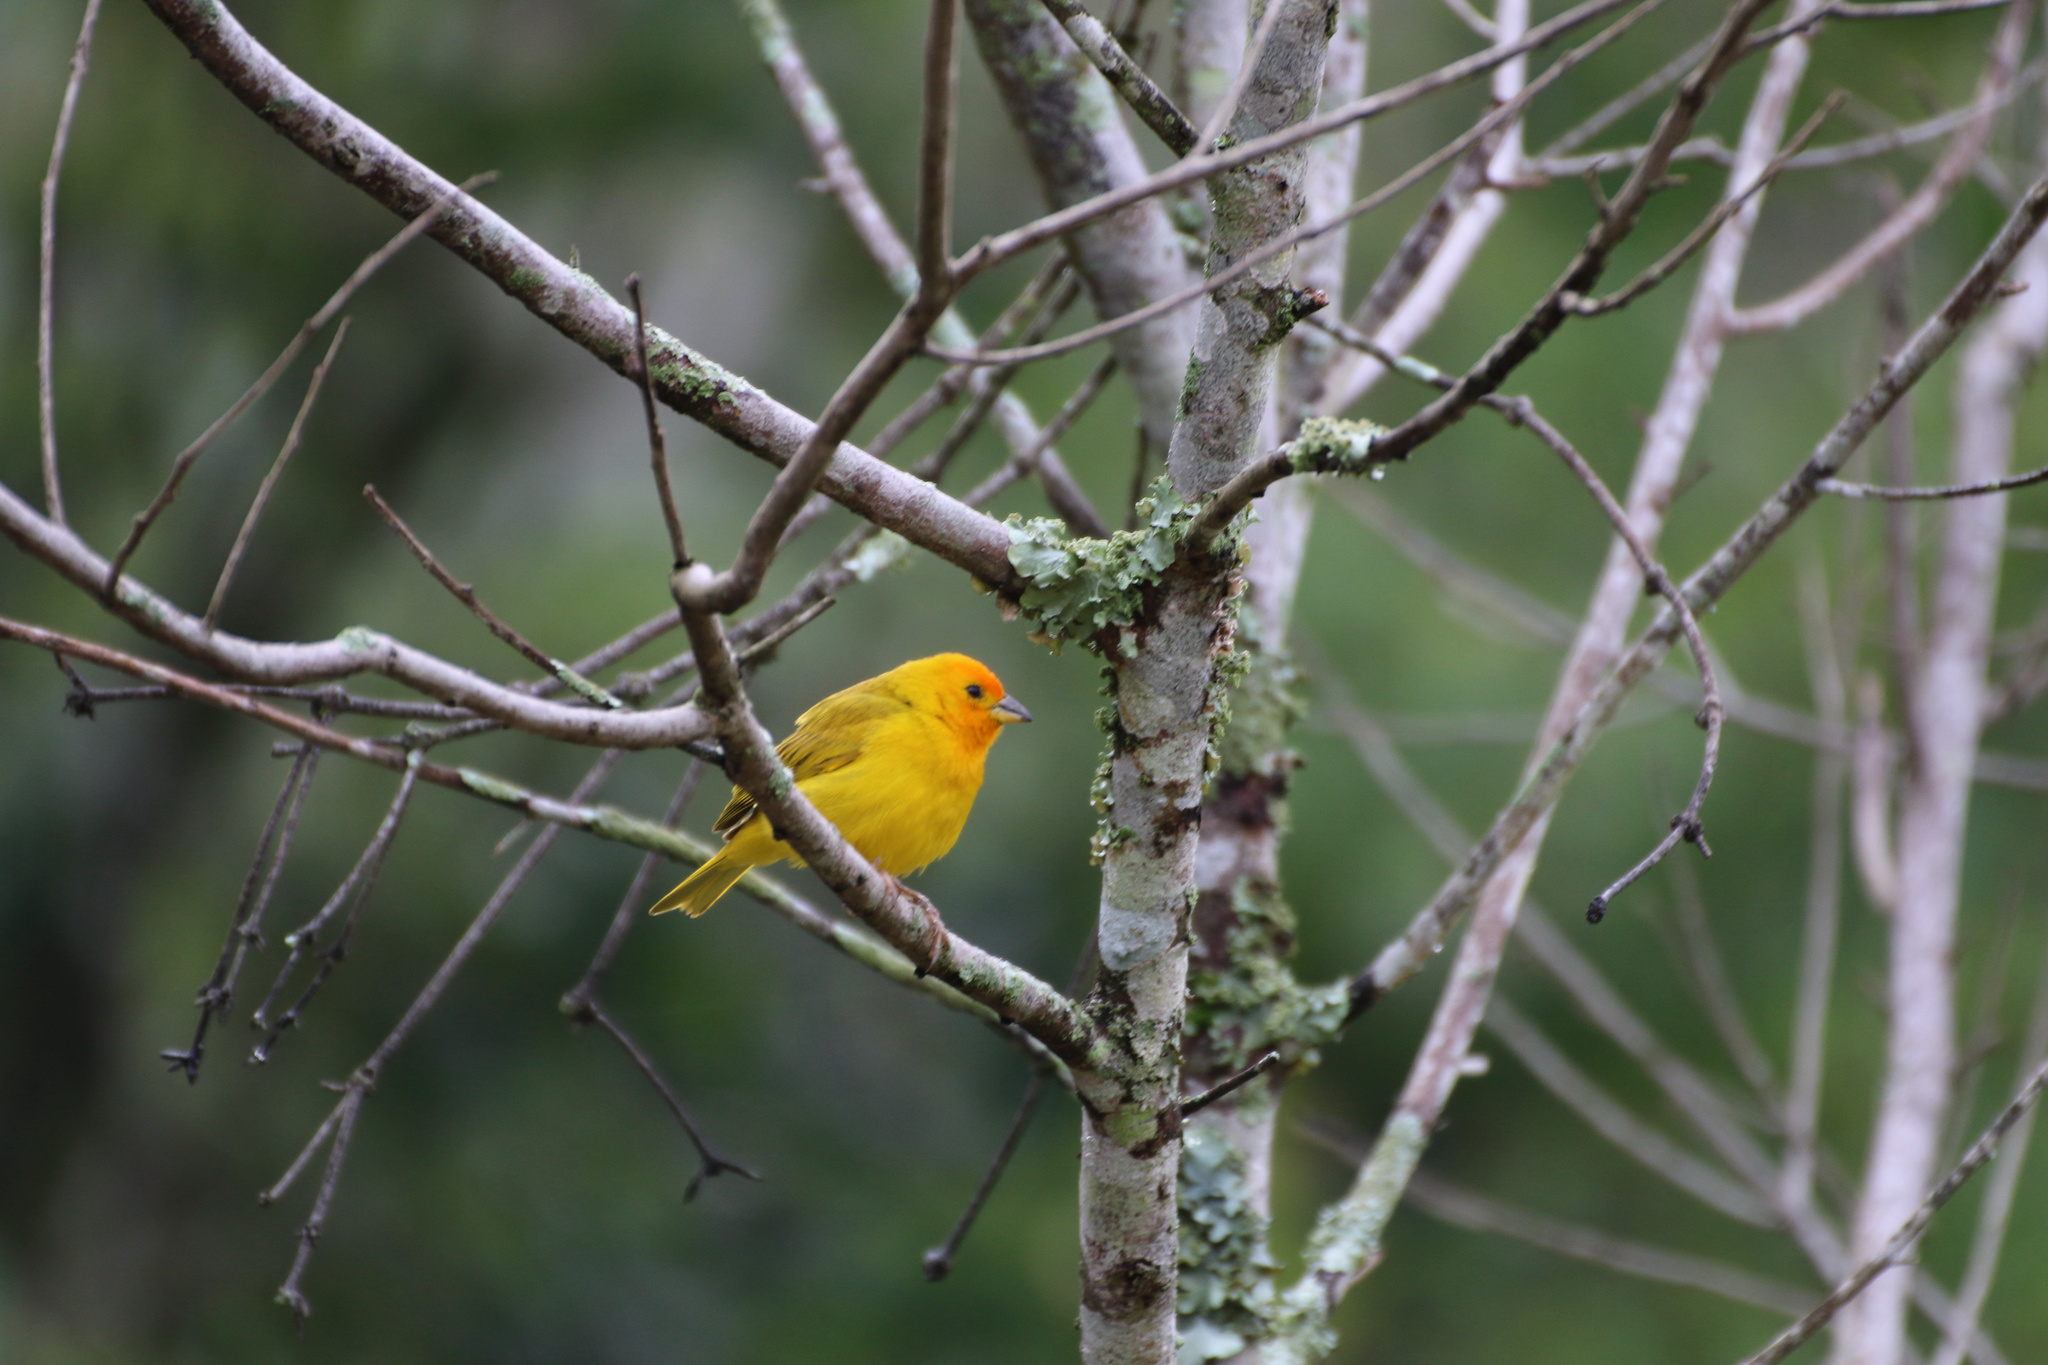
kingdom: Animalia
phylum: Chordata
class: Aves
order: Passeriformes
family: Thraupidae
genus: Sicalis
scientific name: Sicalis flaveola
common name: Saffron finch
